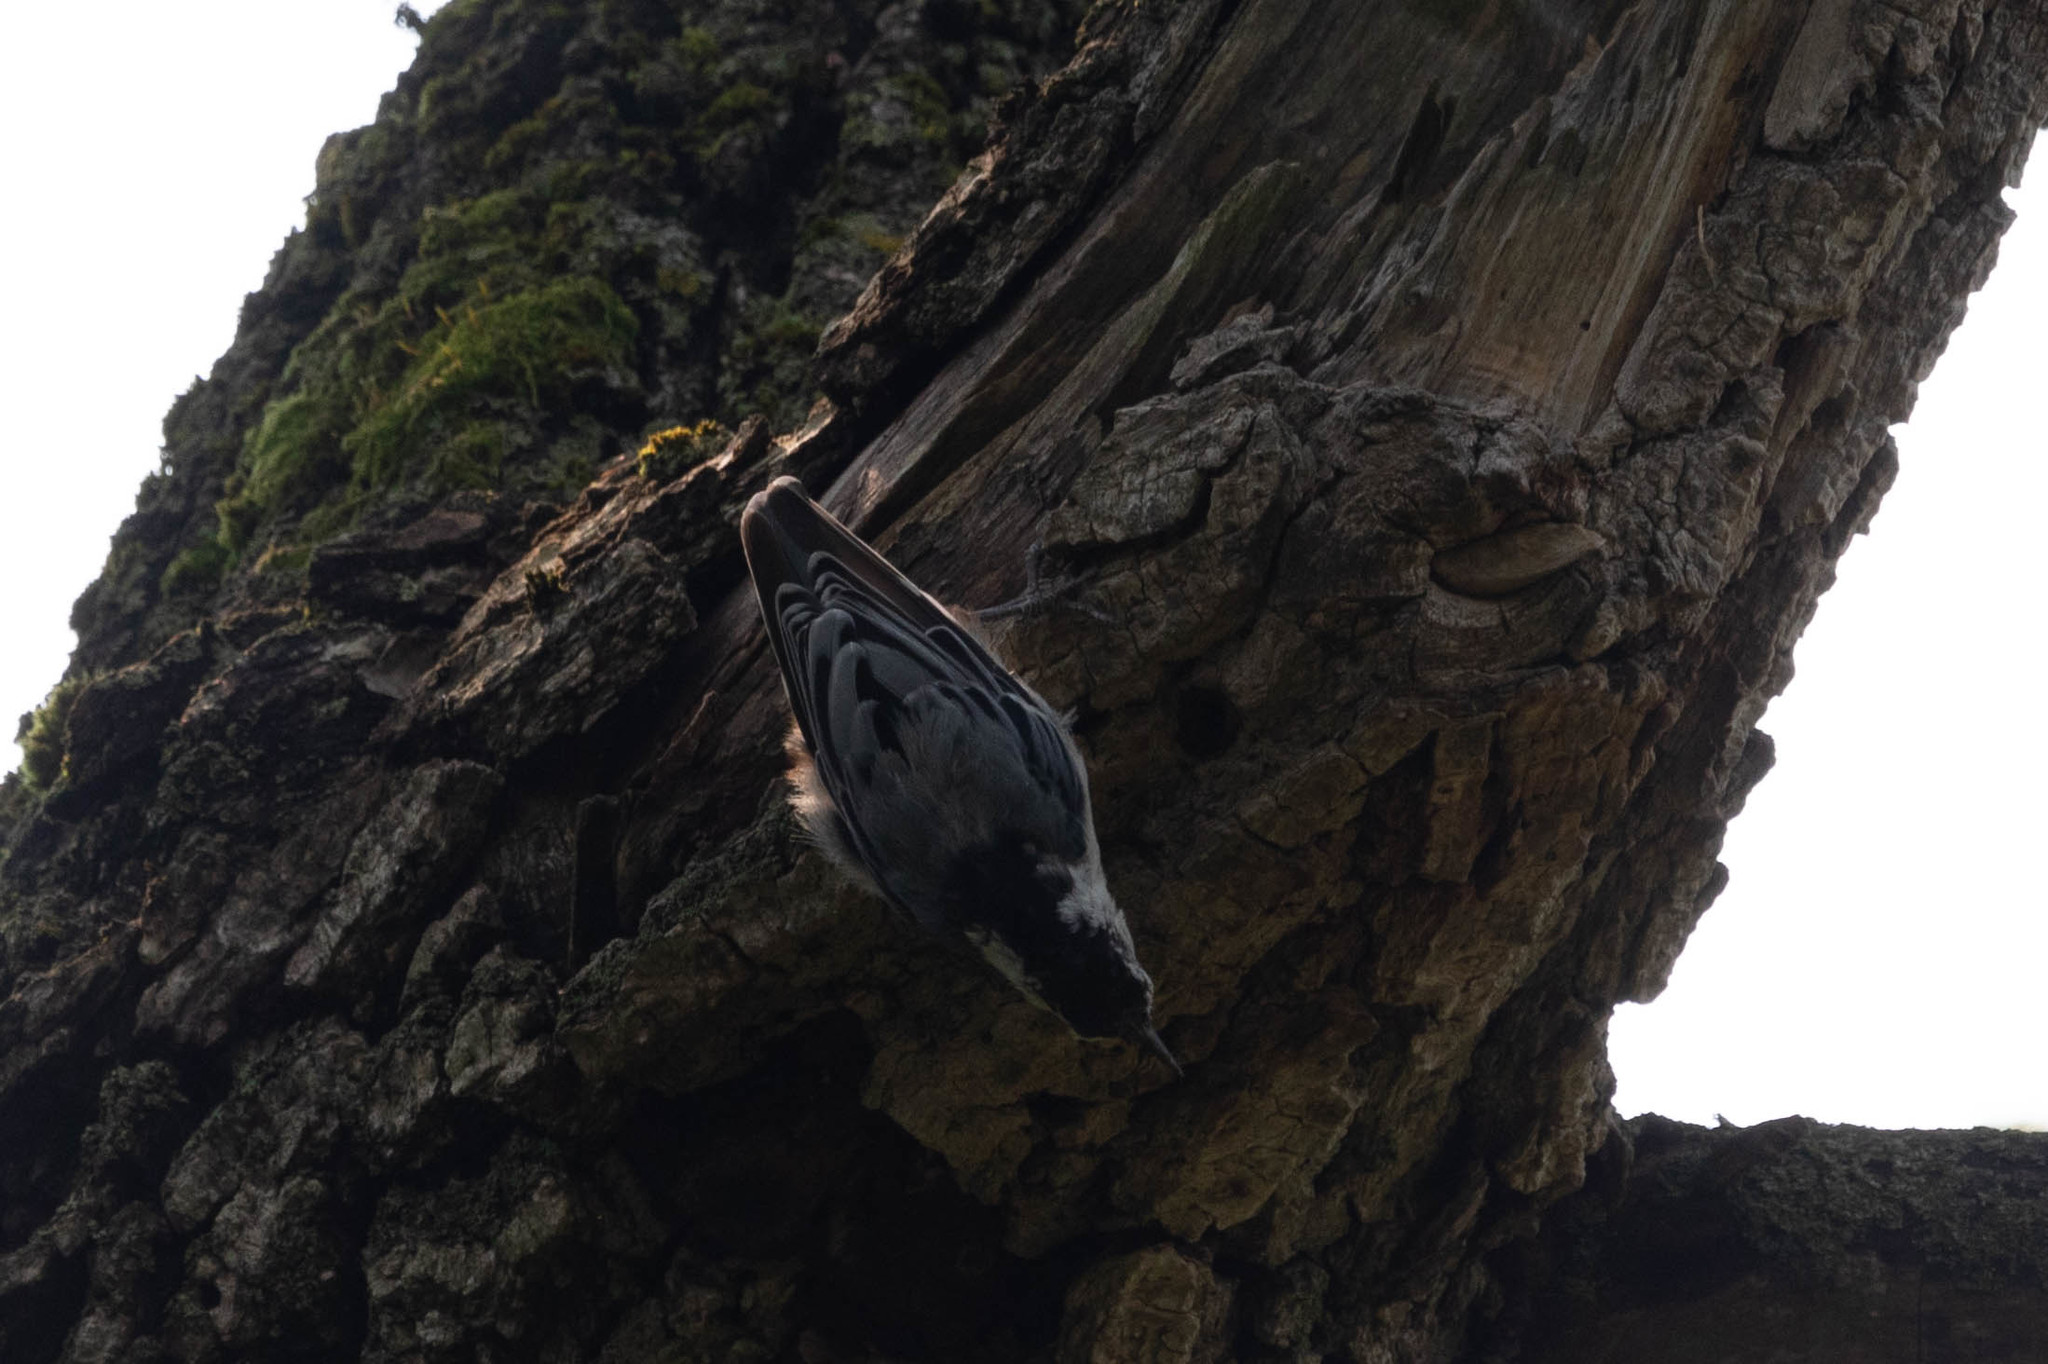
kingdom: Animalia
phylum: Chordata
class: Aves
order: Passeriformes
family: Sittidae
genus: Sitta
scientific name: Sitta carolinensis
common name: White-breasted nuthatch
